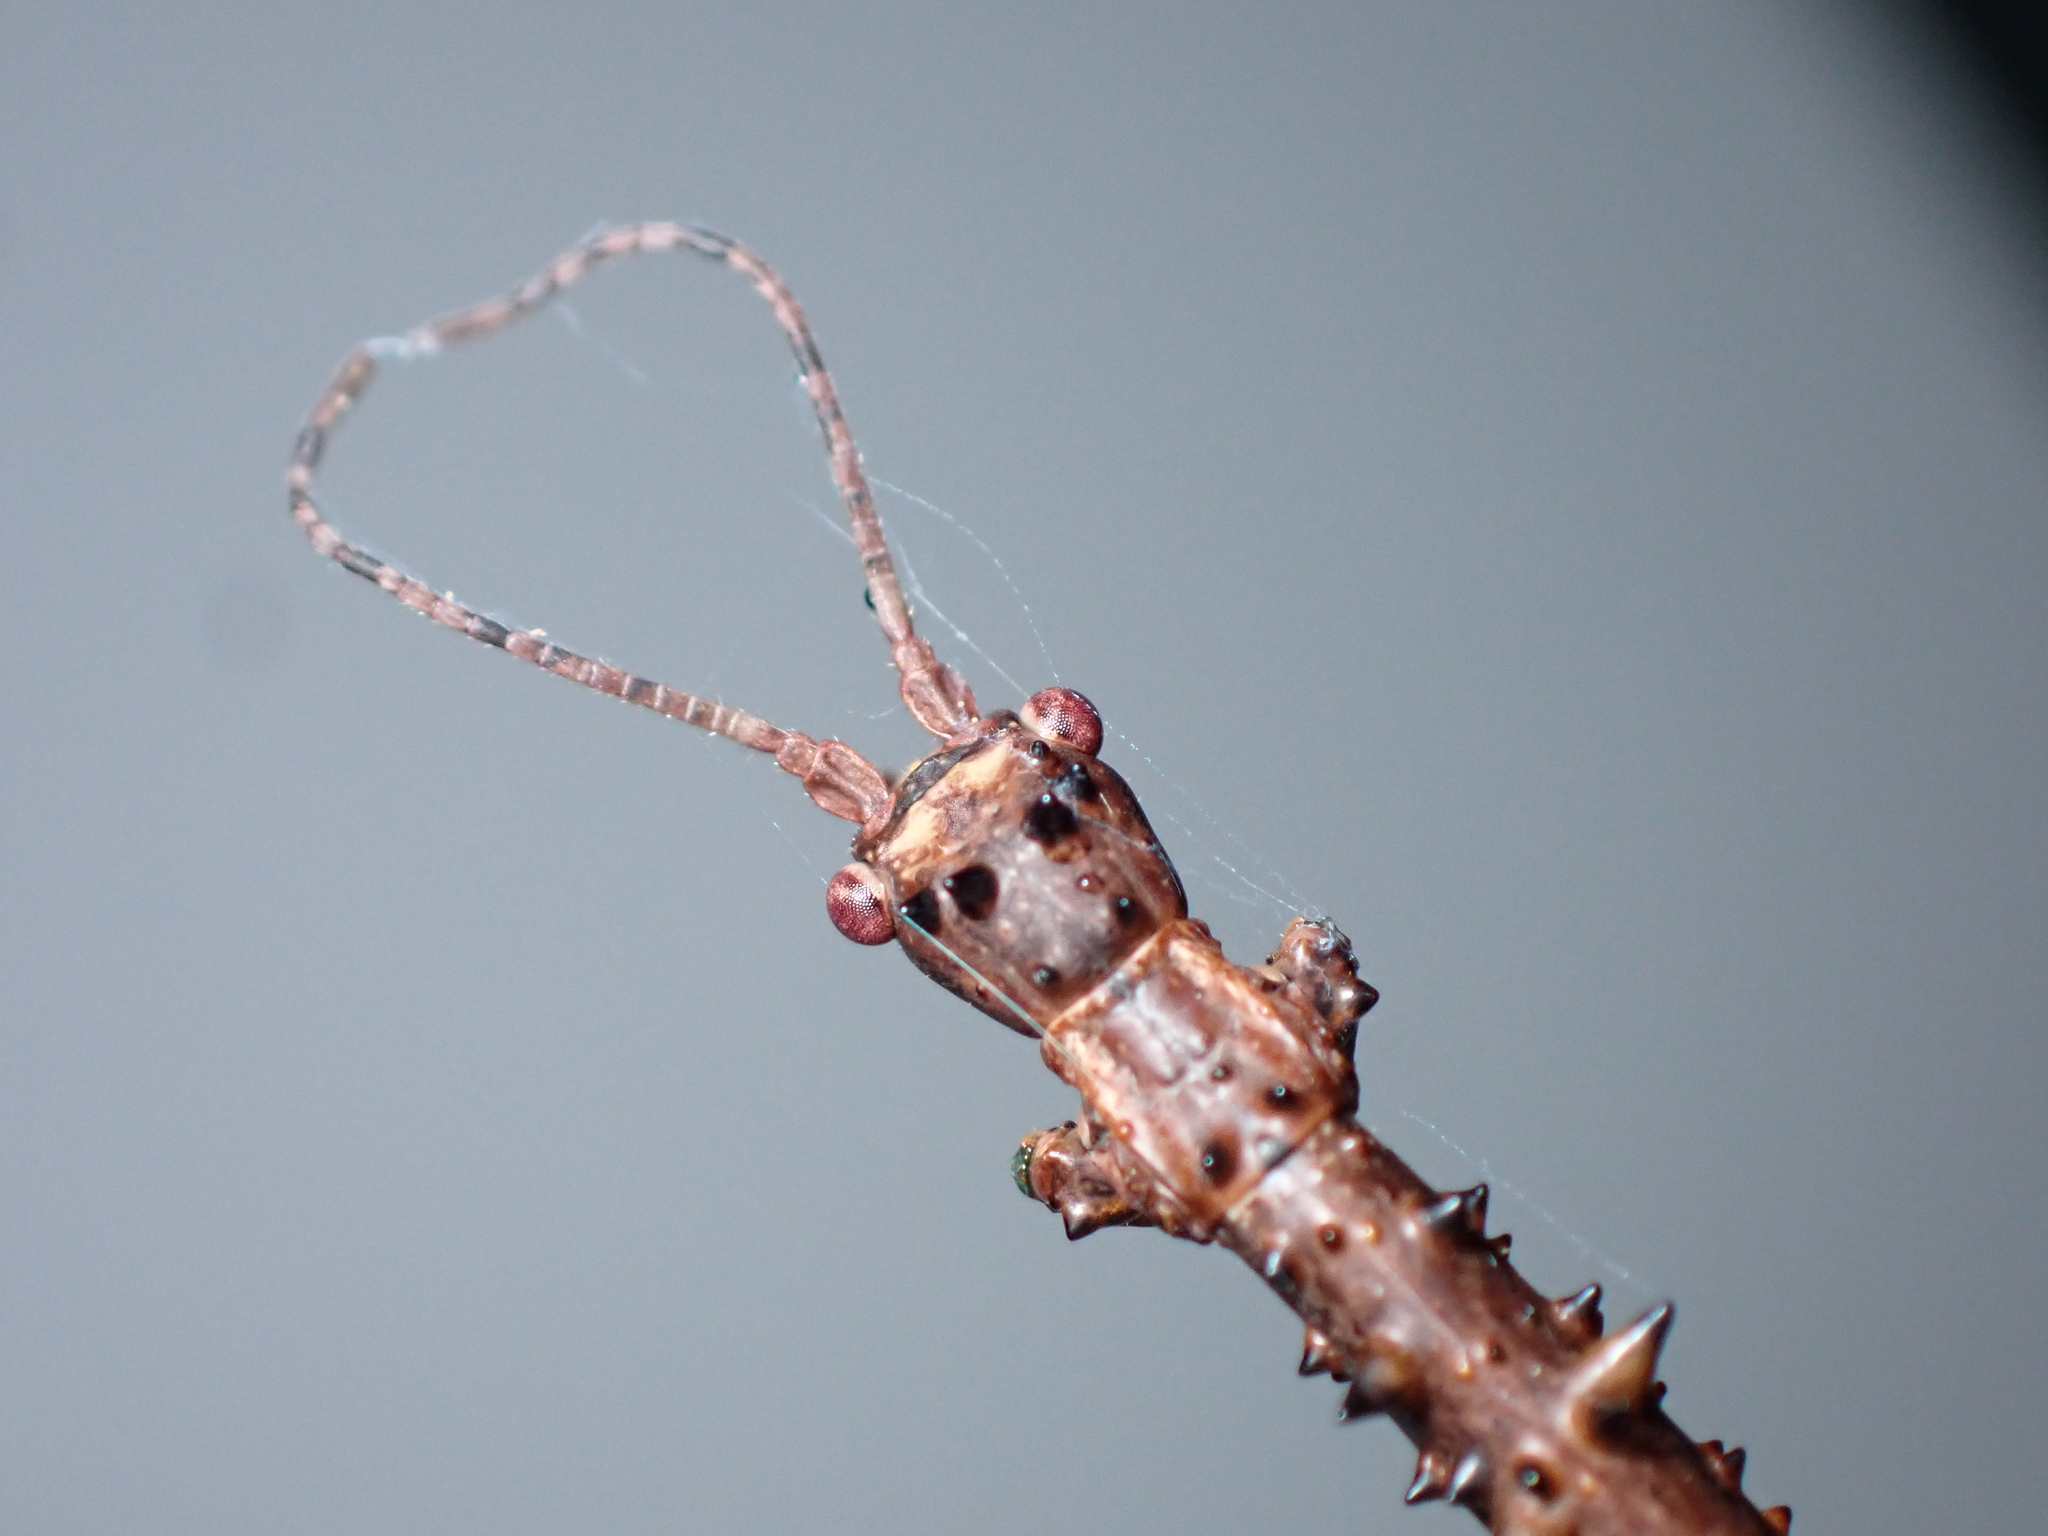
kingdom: Animalia
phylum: Arthropoda
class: Insecta
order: Phasmida
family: Phasmatidae
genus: Acanthoxyla
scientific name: Acanthoxyla prasina
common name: Black-spined stick insect
